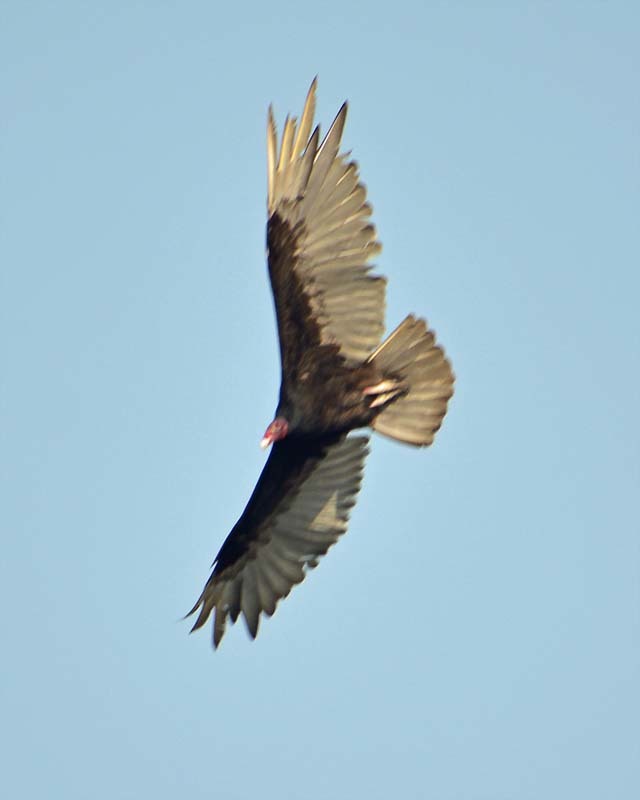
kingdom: Animalia
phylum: Chordata
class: Aves
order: Accipitriformes
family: Cathartidae
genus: Cathartes
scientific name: Cathartes aura
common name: Turkey vulture
